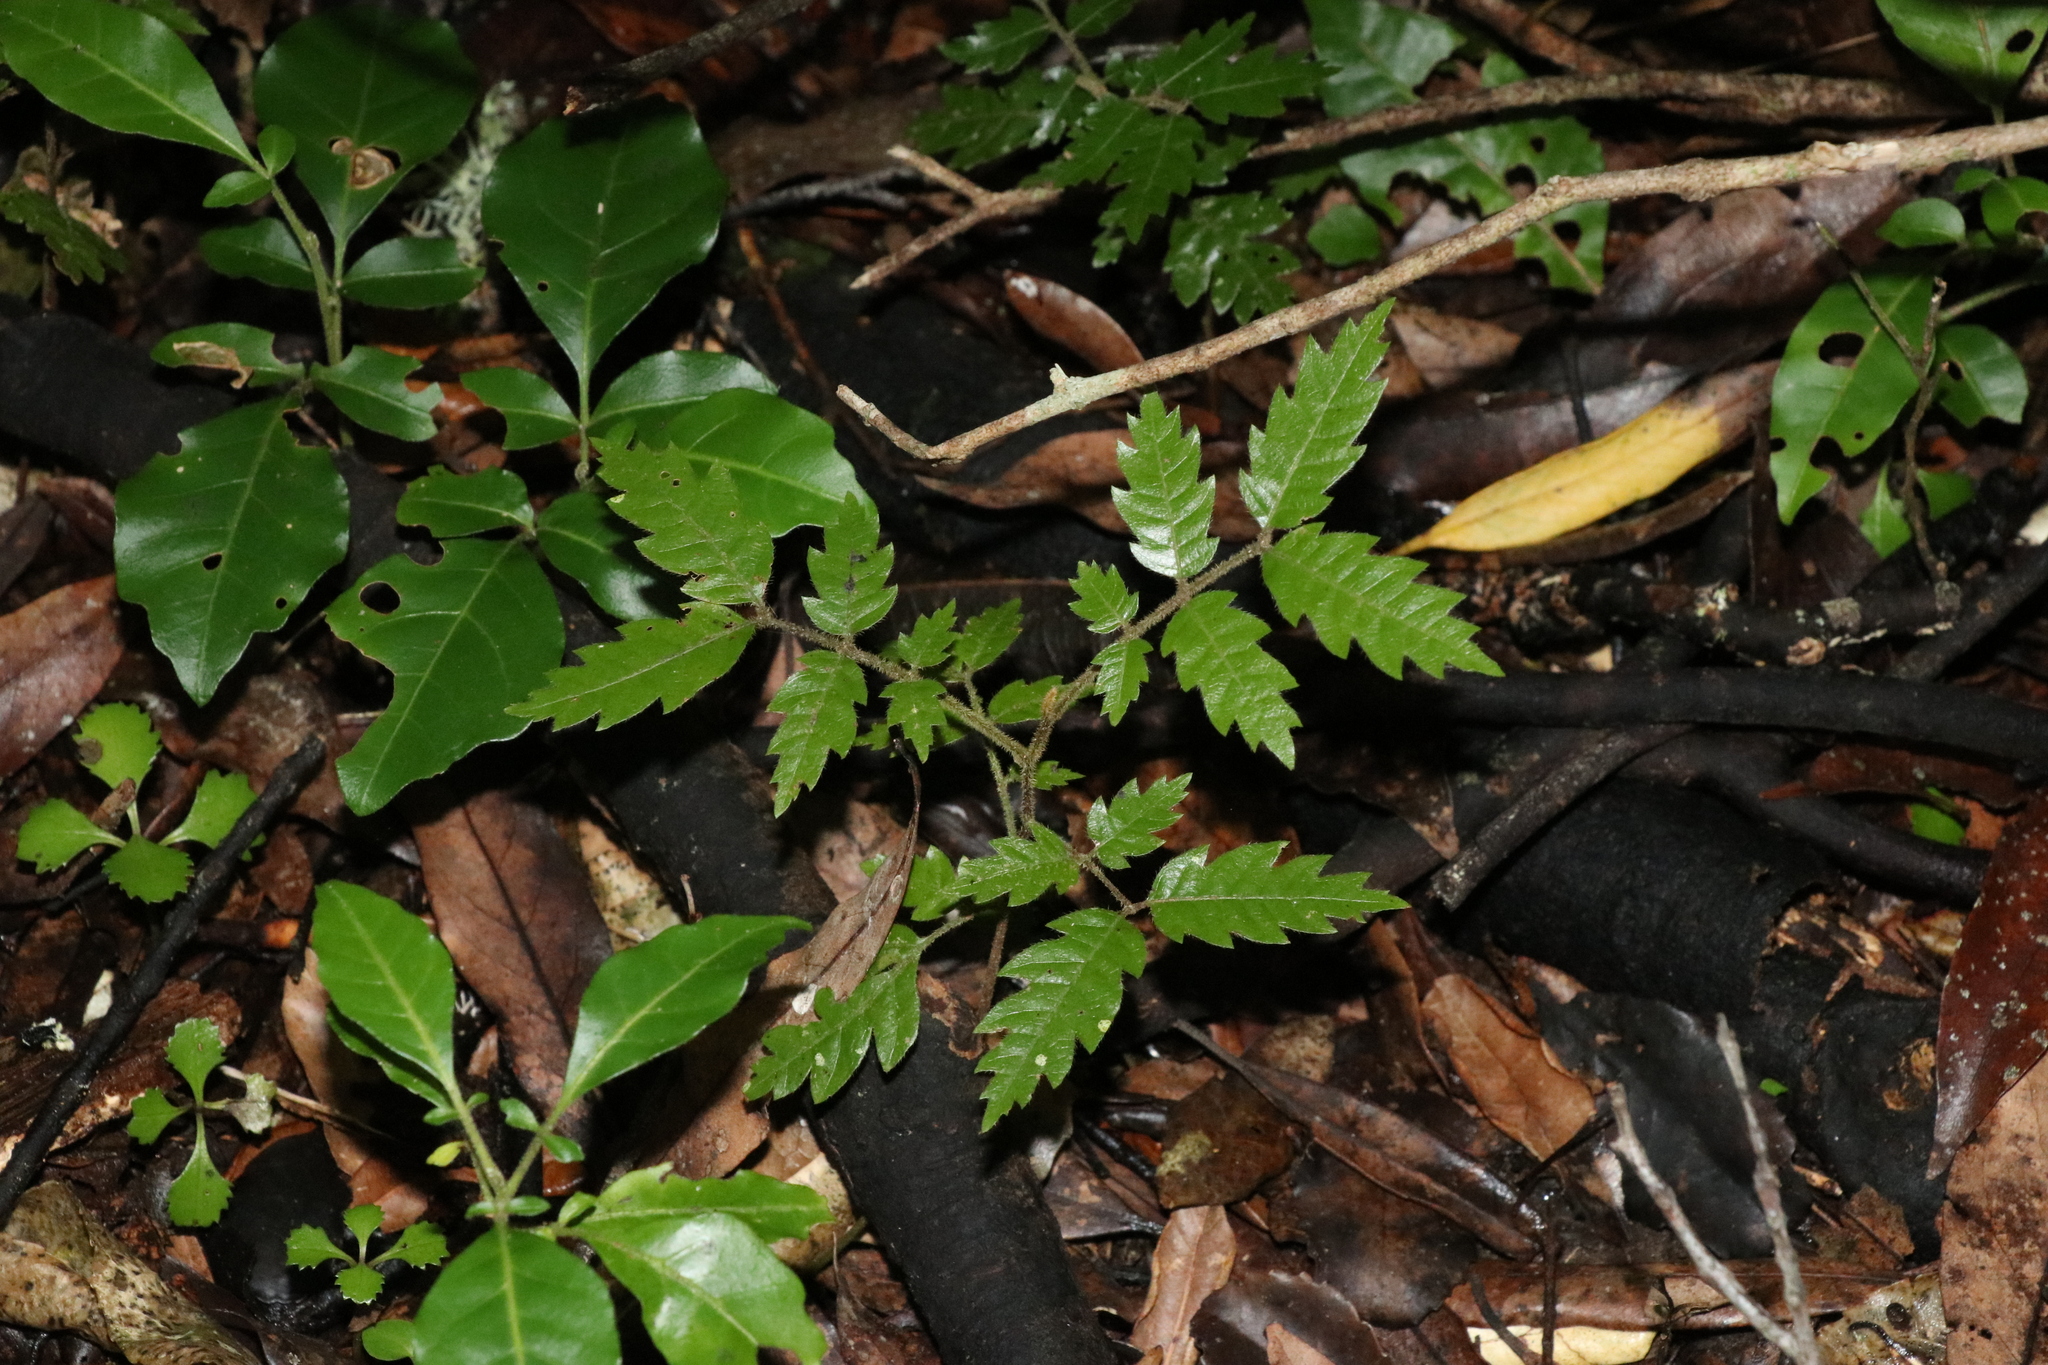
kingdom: Plantae
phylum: Tracheophyta
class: Magnoliopsida
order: Sapindales
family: Sapindaceae
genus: Alectryon
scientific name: Alectryon excelsus
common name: Three kings titoki
